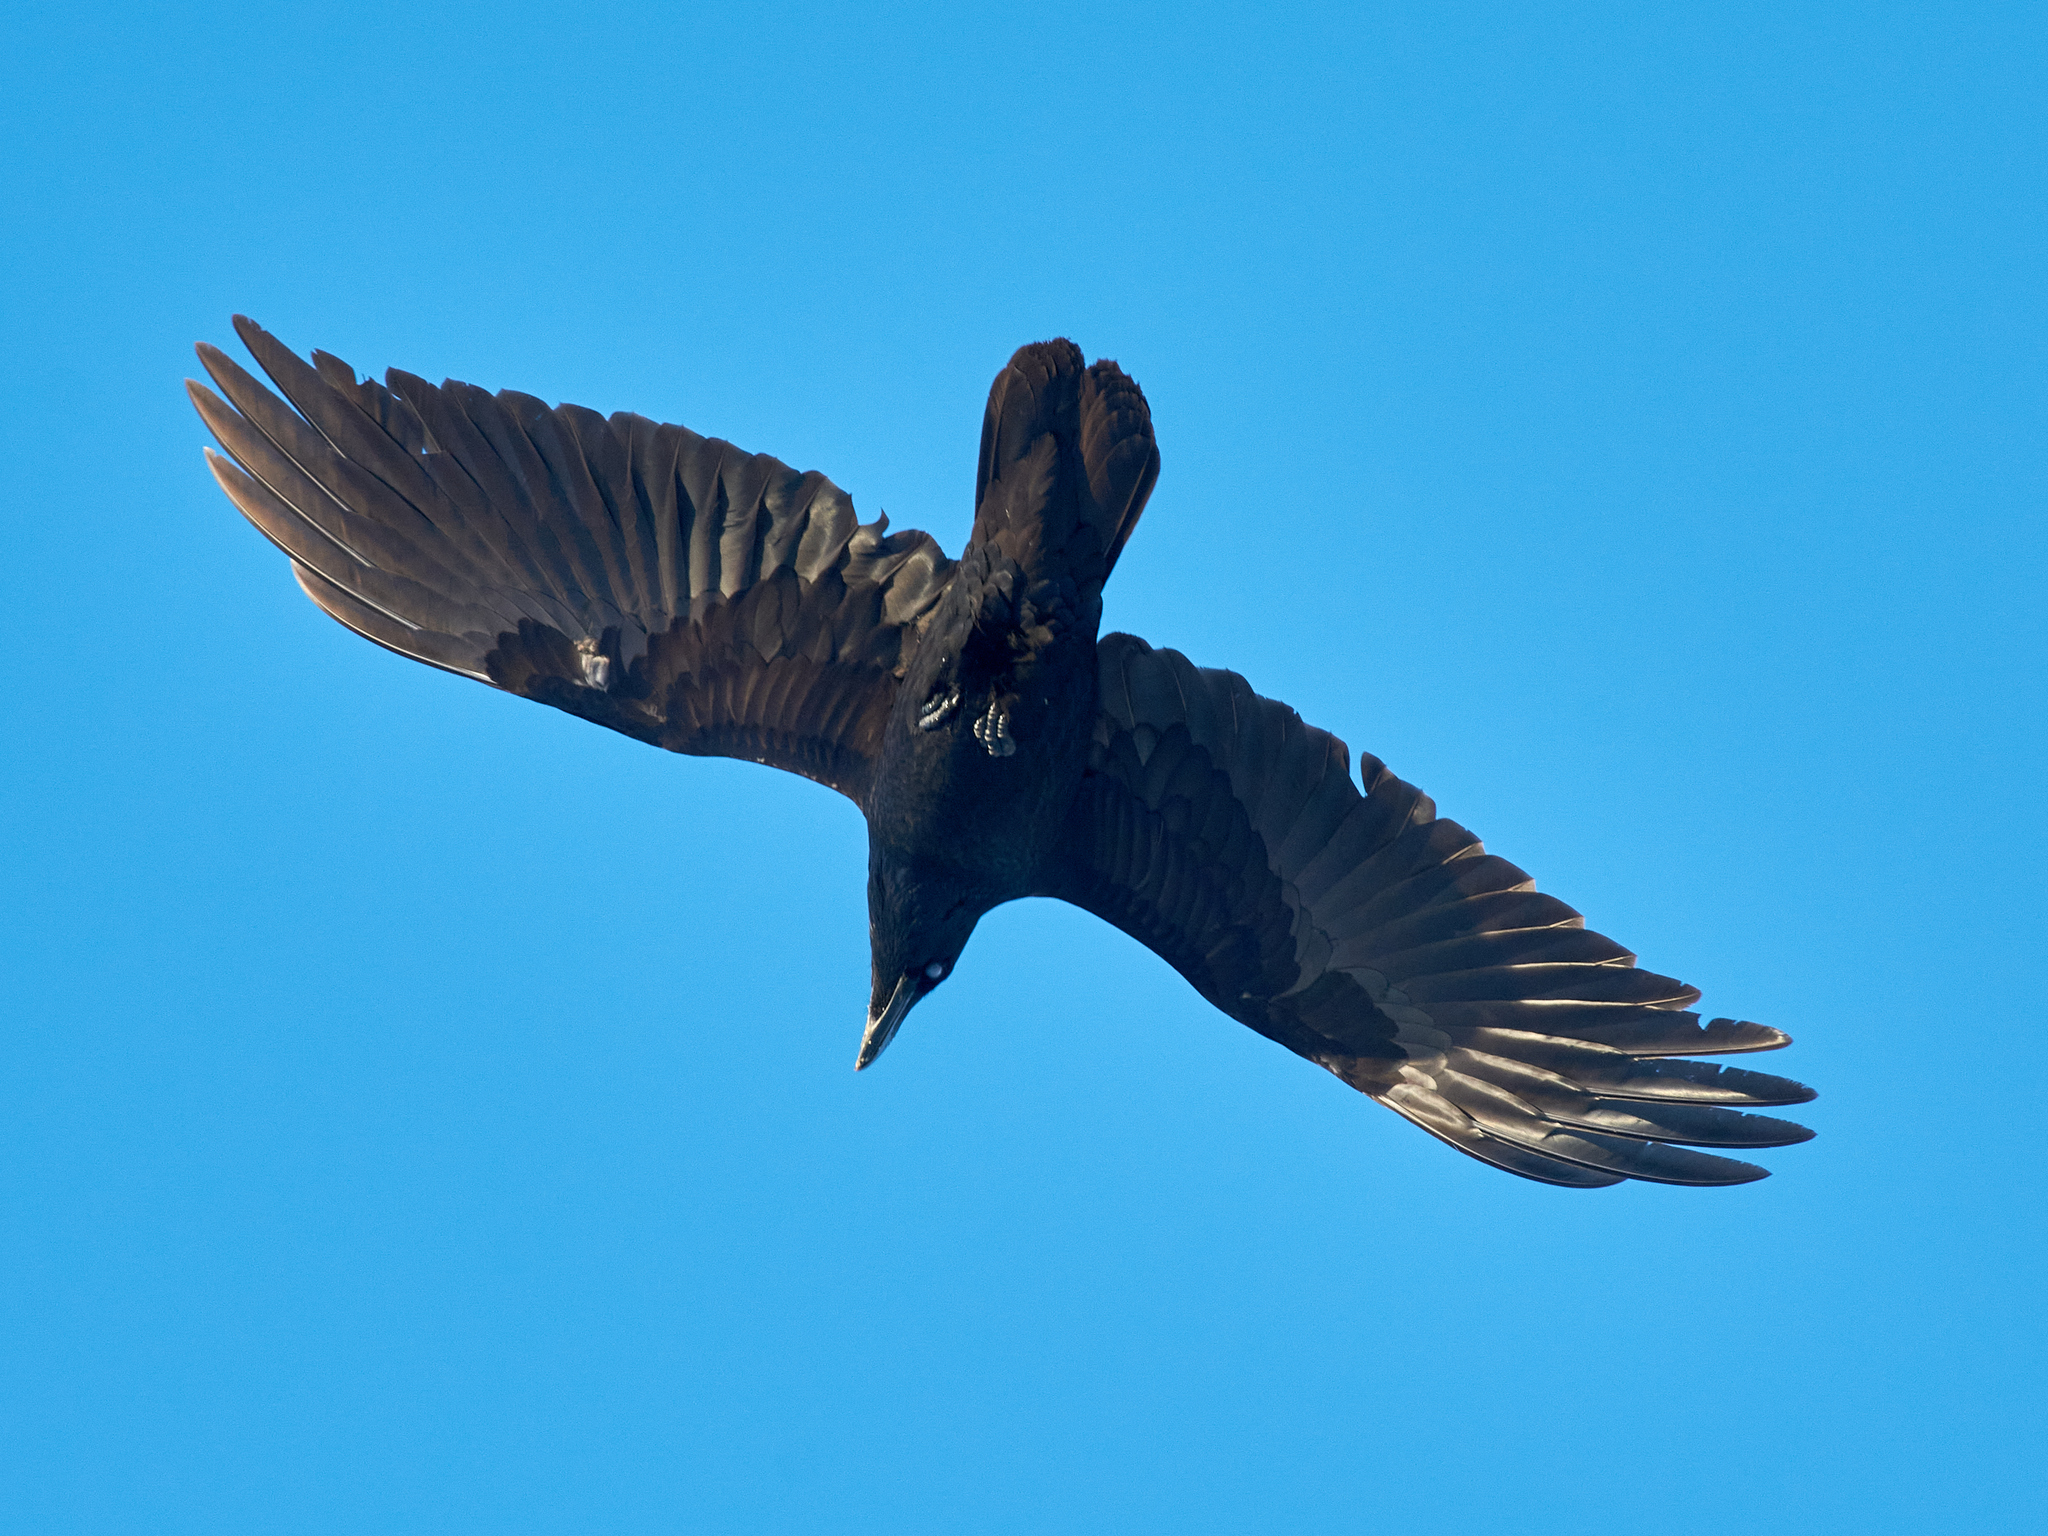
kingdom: Animalia
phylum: Chordata
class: Aves
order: Passeriformes
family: Corvidae
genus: Corvus
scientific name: Corvus corax
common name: Common raven
